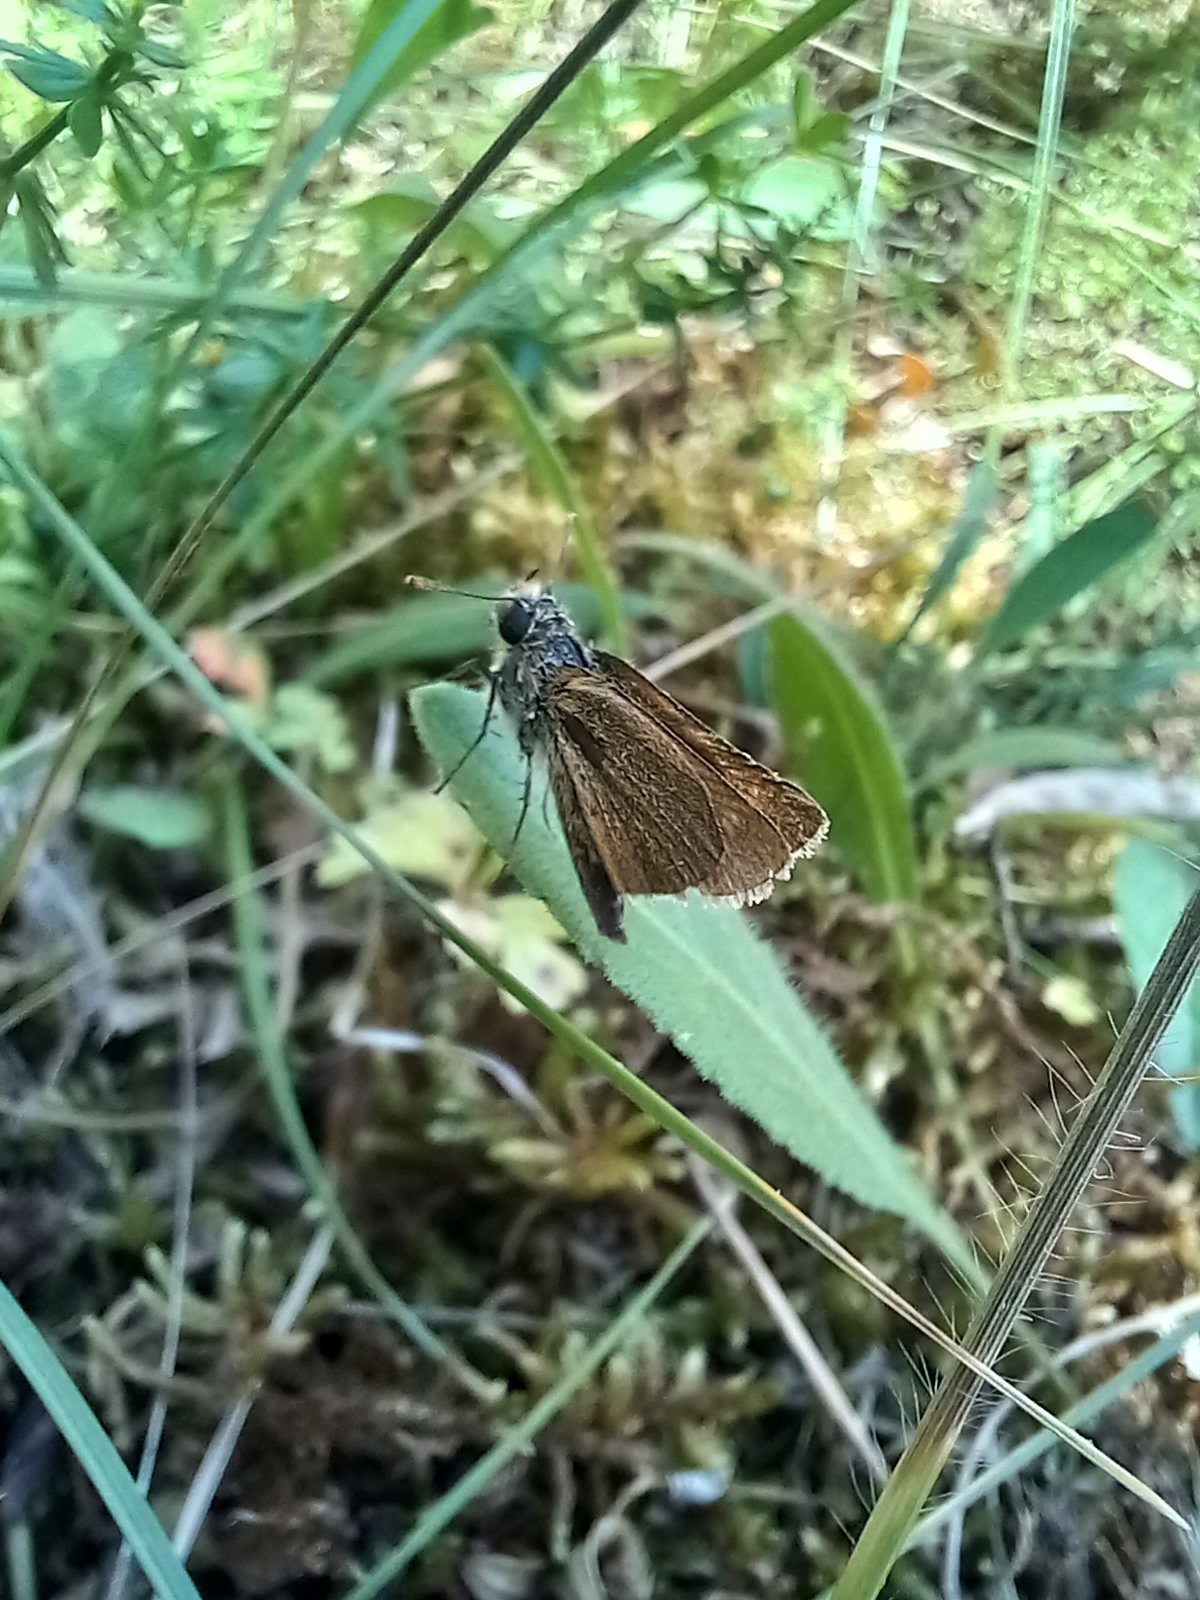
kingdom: Animalia
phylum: Arthropoda
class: Insecta
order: Lepidoptera
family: Hesperiidae
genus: Thymelicus
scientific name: Thymelicus acteon
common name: Lulworth skipper
